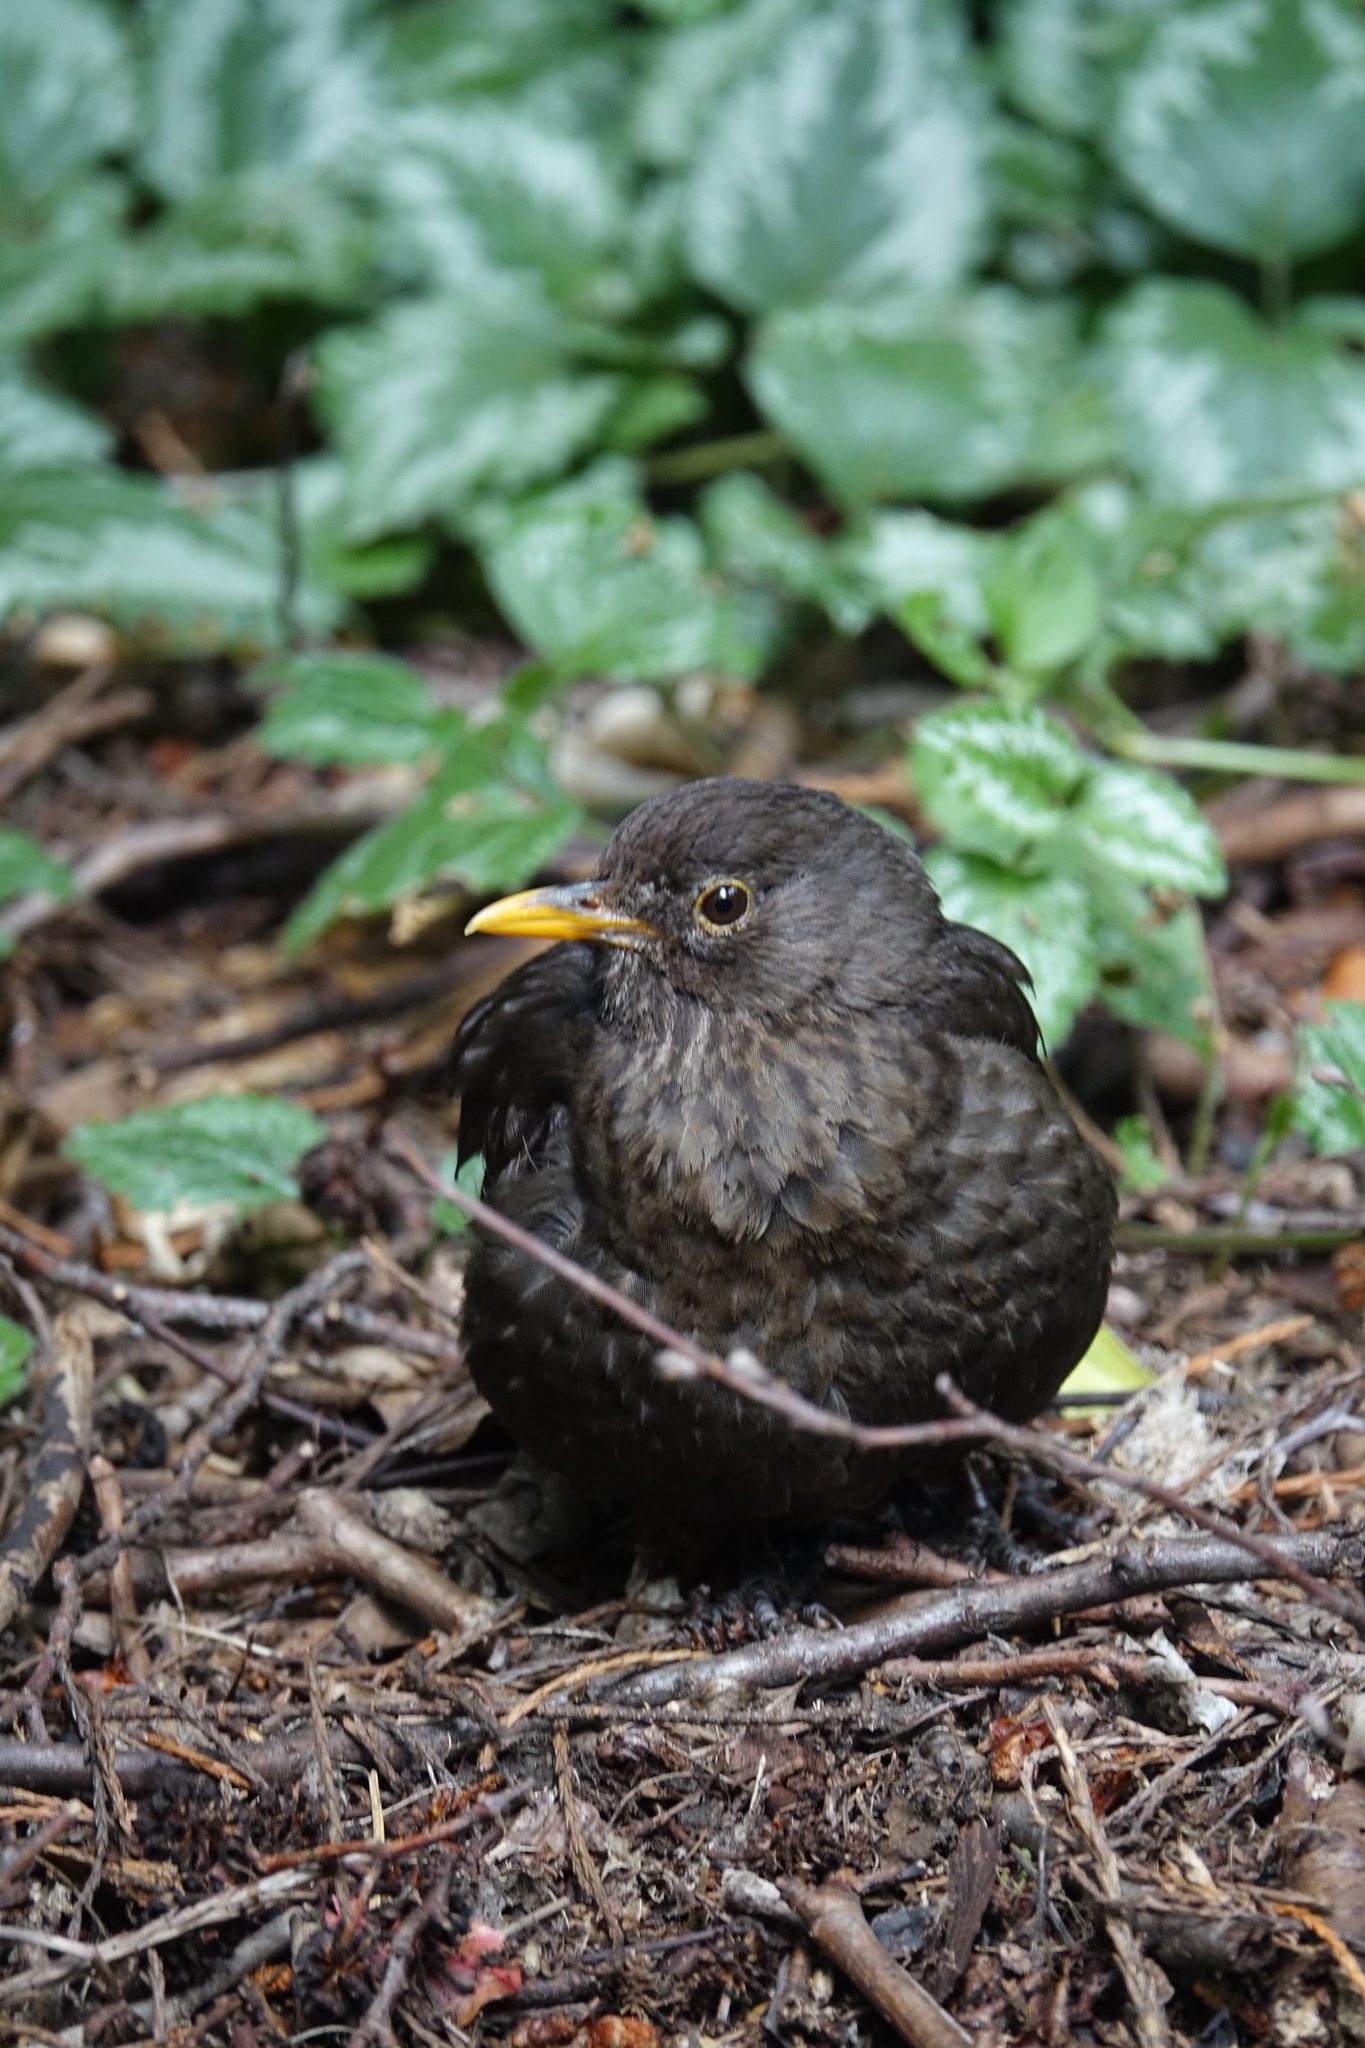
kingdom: Animalia
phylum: Chordata
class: Aves
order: Passeriformes
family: Turdidae
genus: Turdus
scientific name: Turdus merula
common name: Common blackbird
